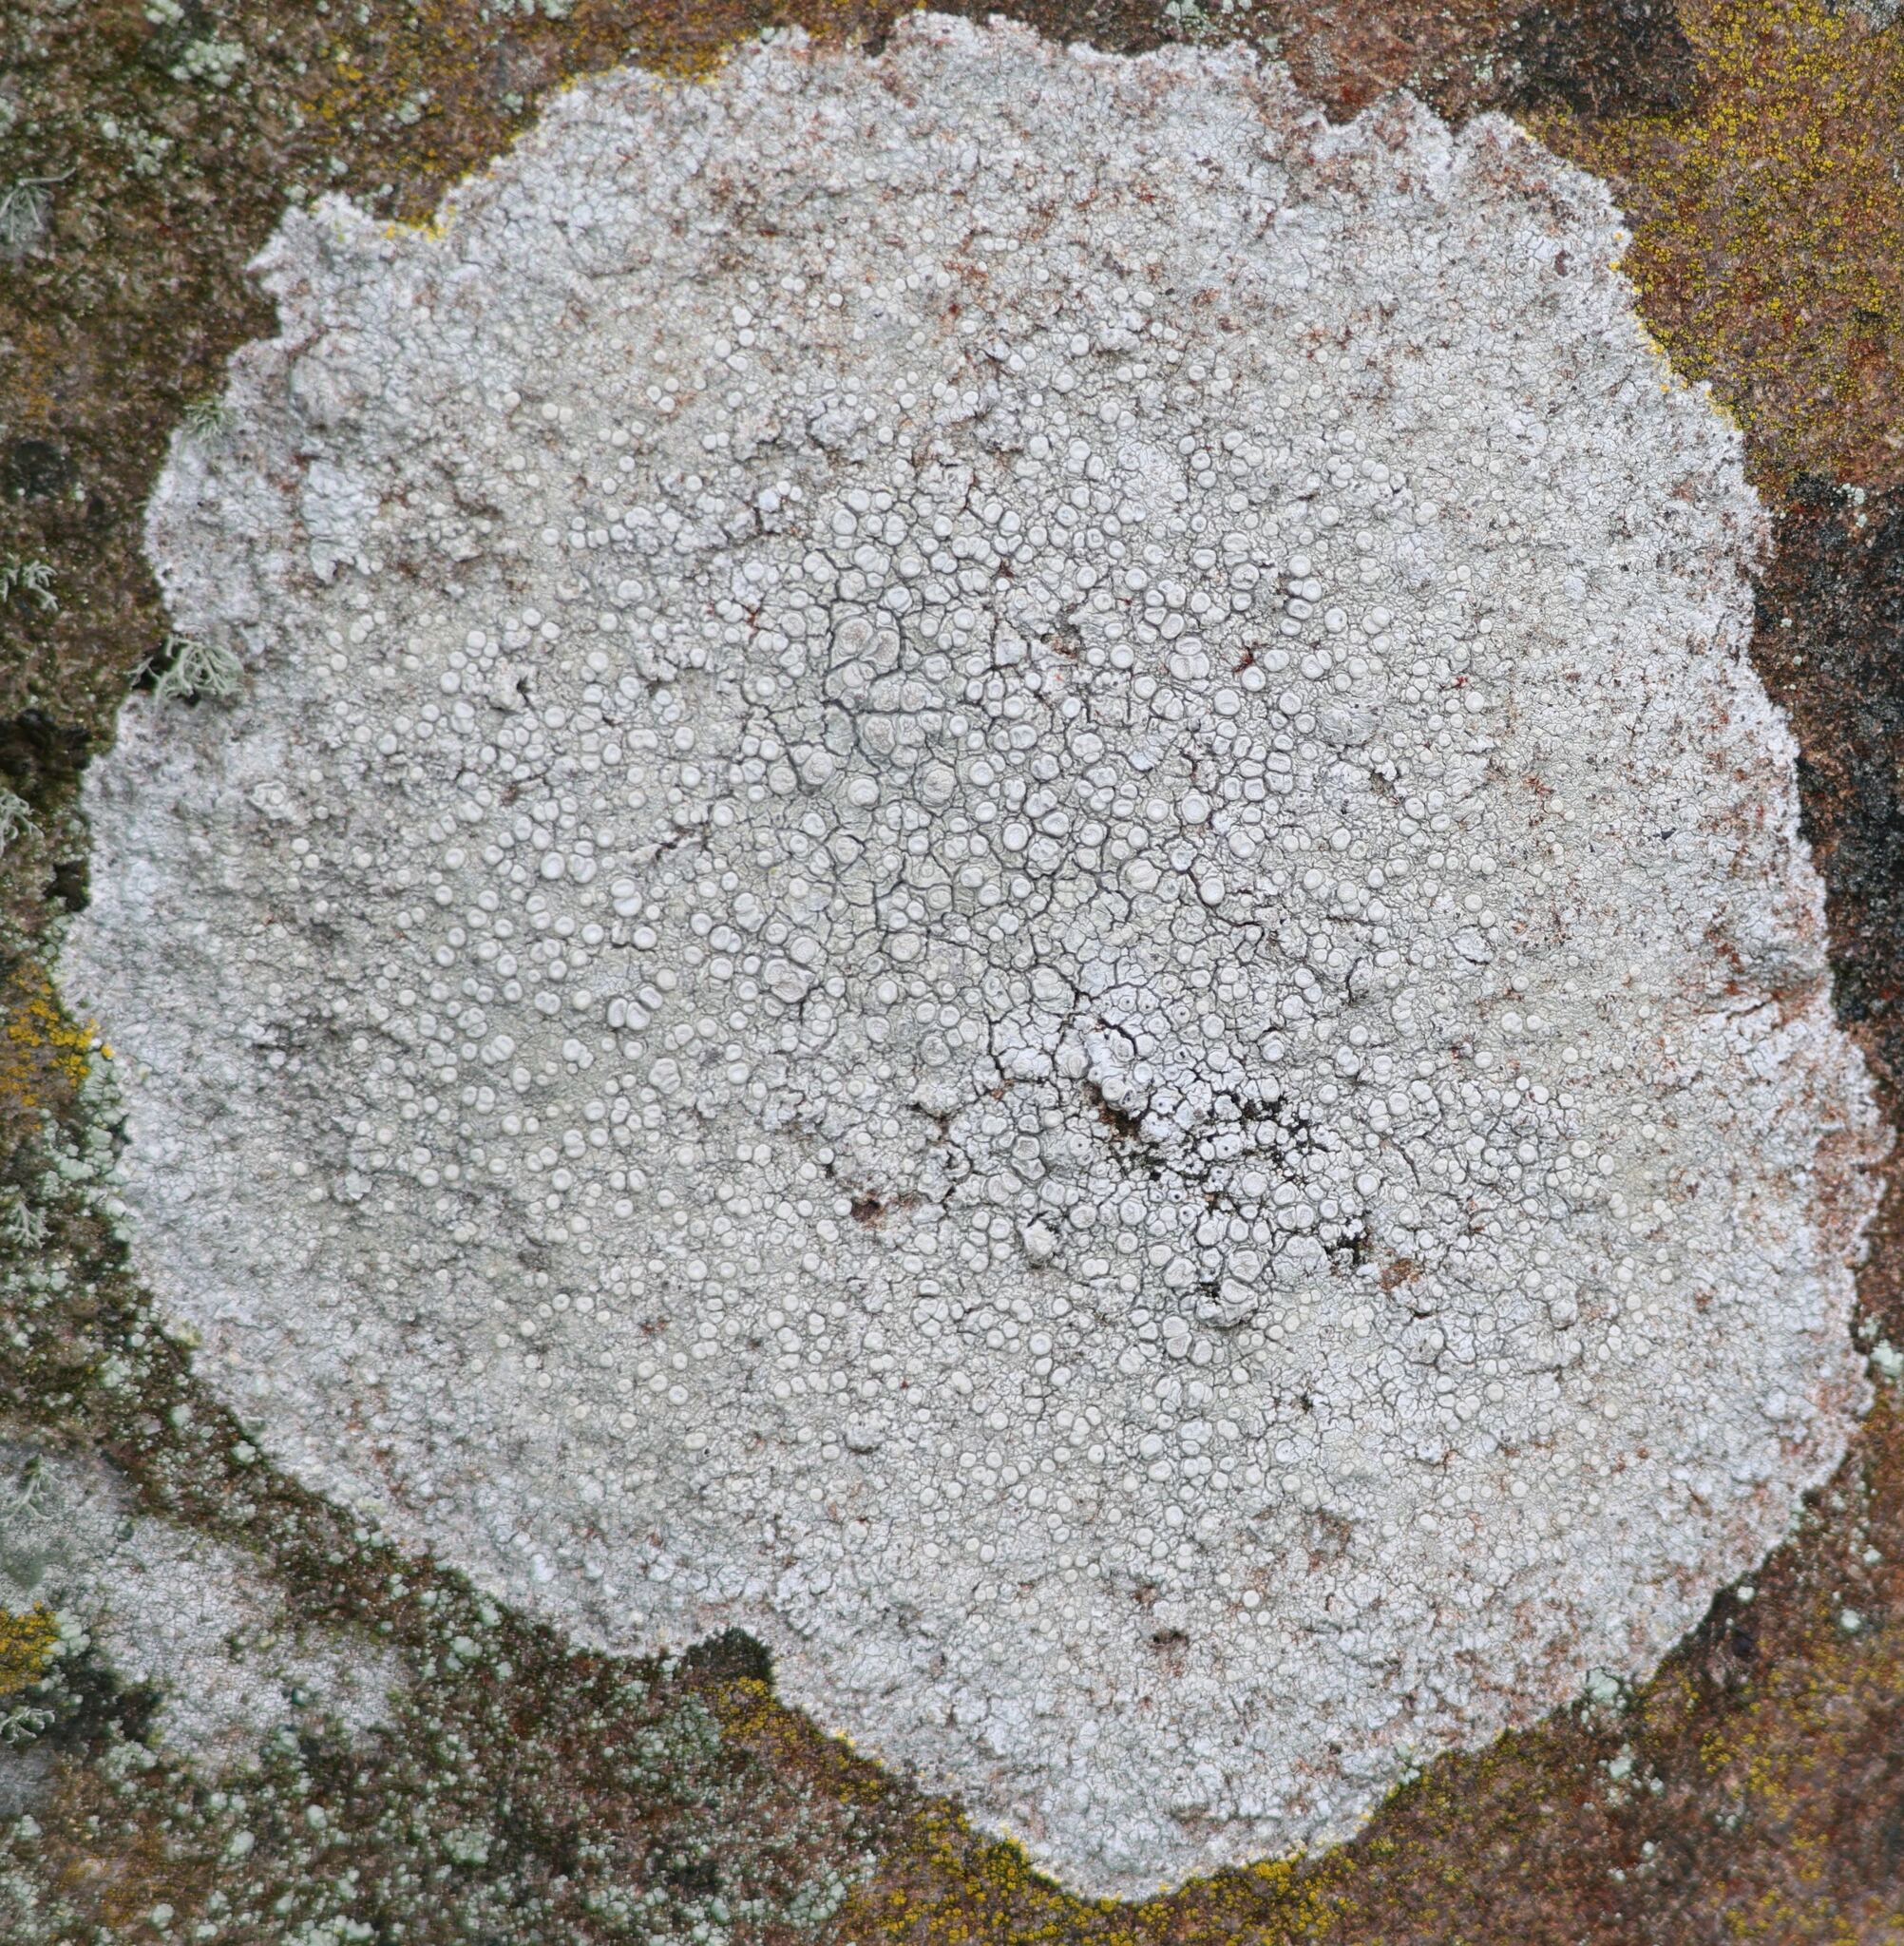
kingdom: Fungi
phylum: Ascomycota
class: Lecanoromycetes
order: Pertusariales
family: Ochrolechiaceae
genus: Ochrolechia
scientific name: Ochrolechia parella
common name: Crab's eye lichen
